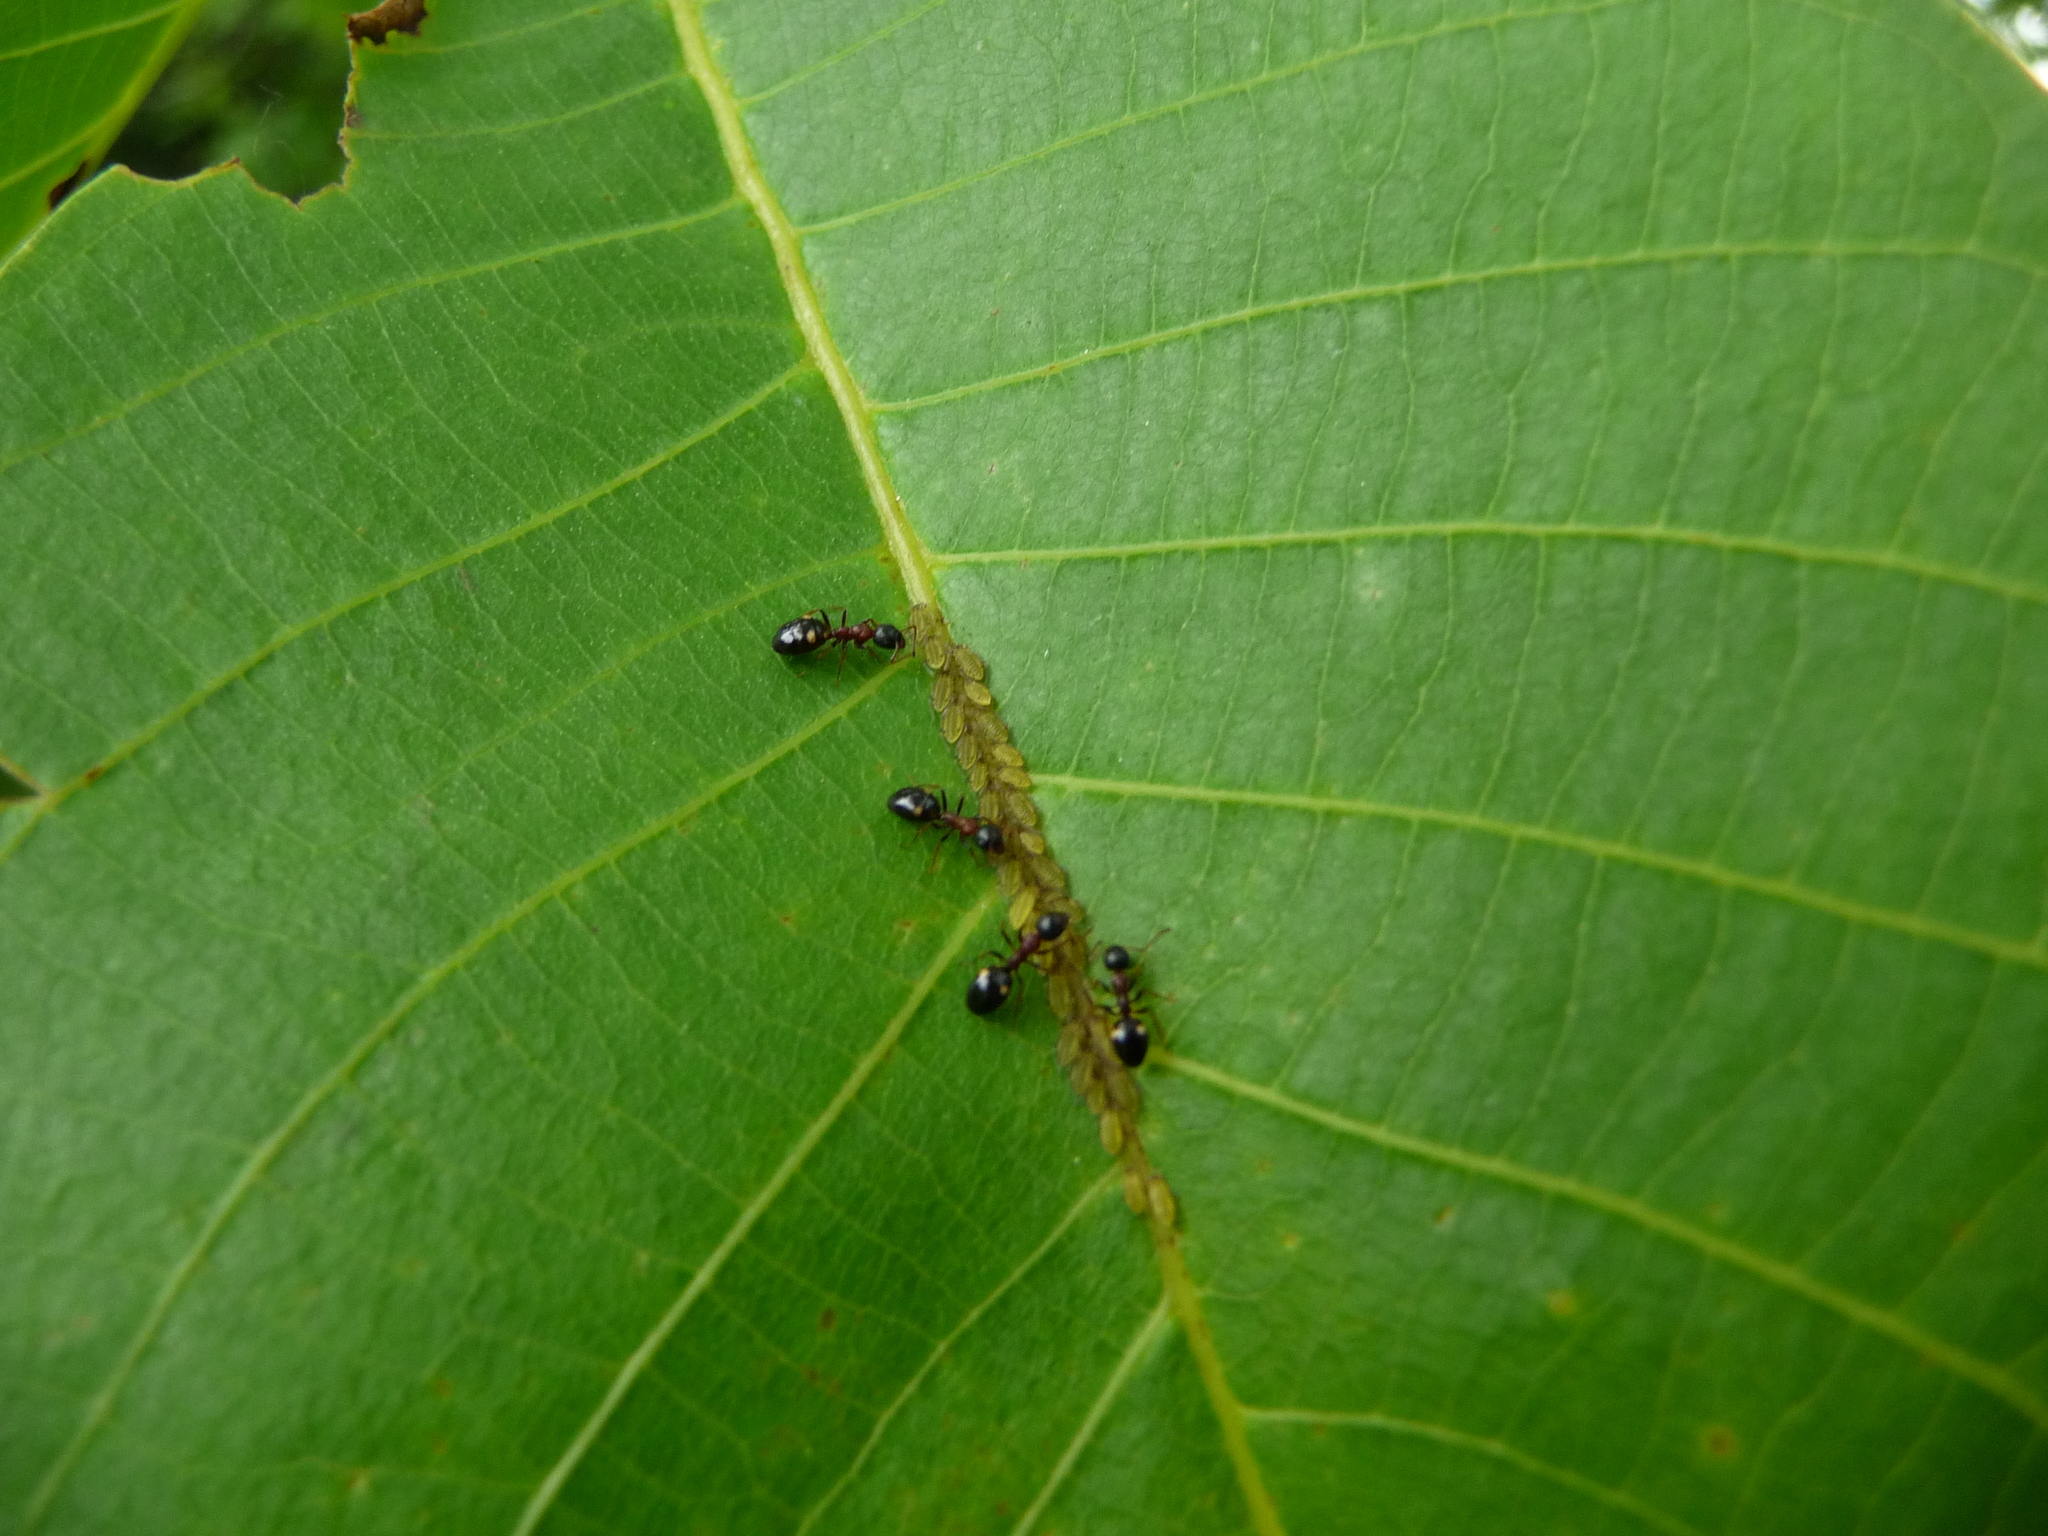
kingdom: Animalia
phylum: Arthropoda
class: Insecta
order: Hymenoptera
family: Formicidae
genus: Dolichoderus
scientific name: Dolichoderus quadripunctatus
